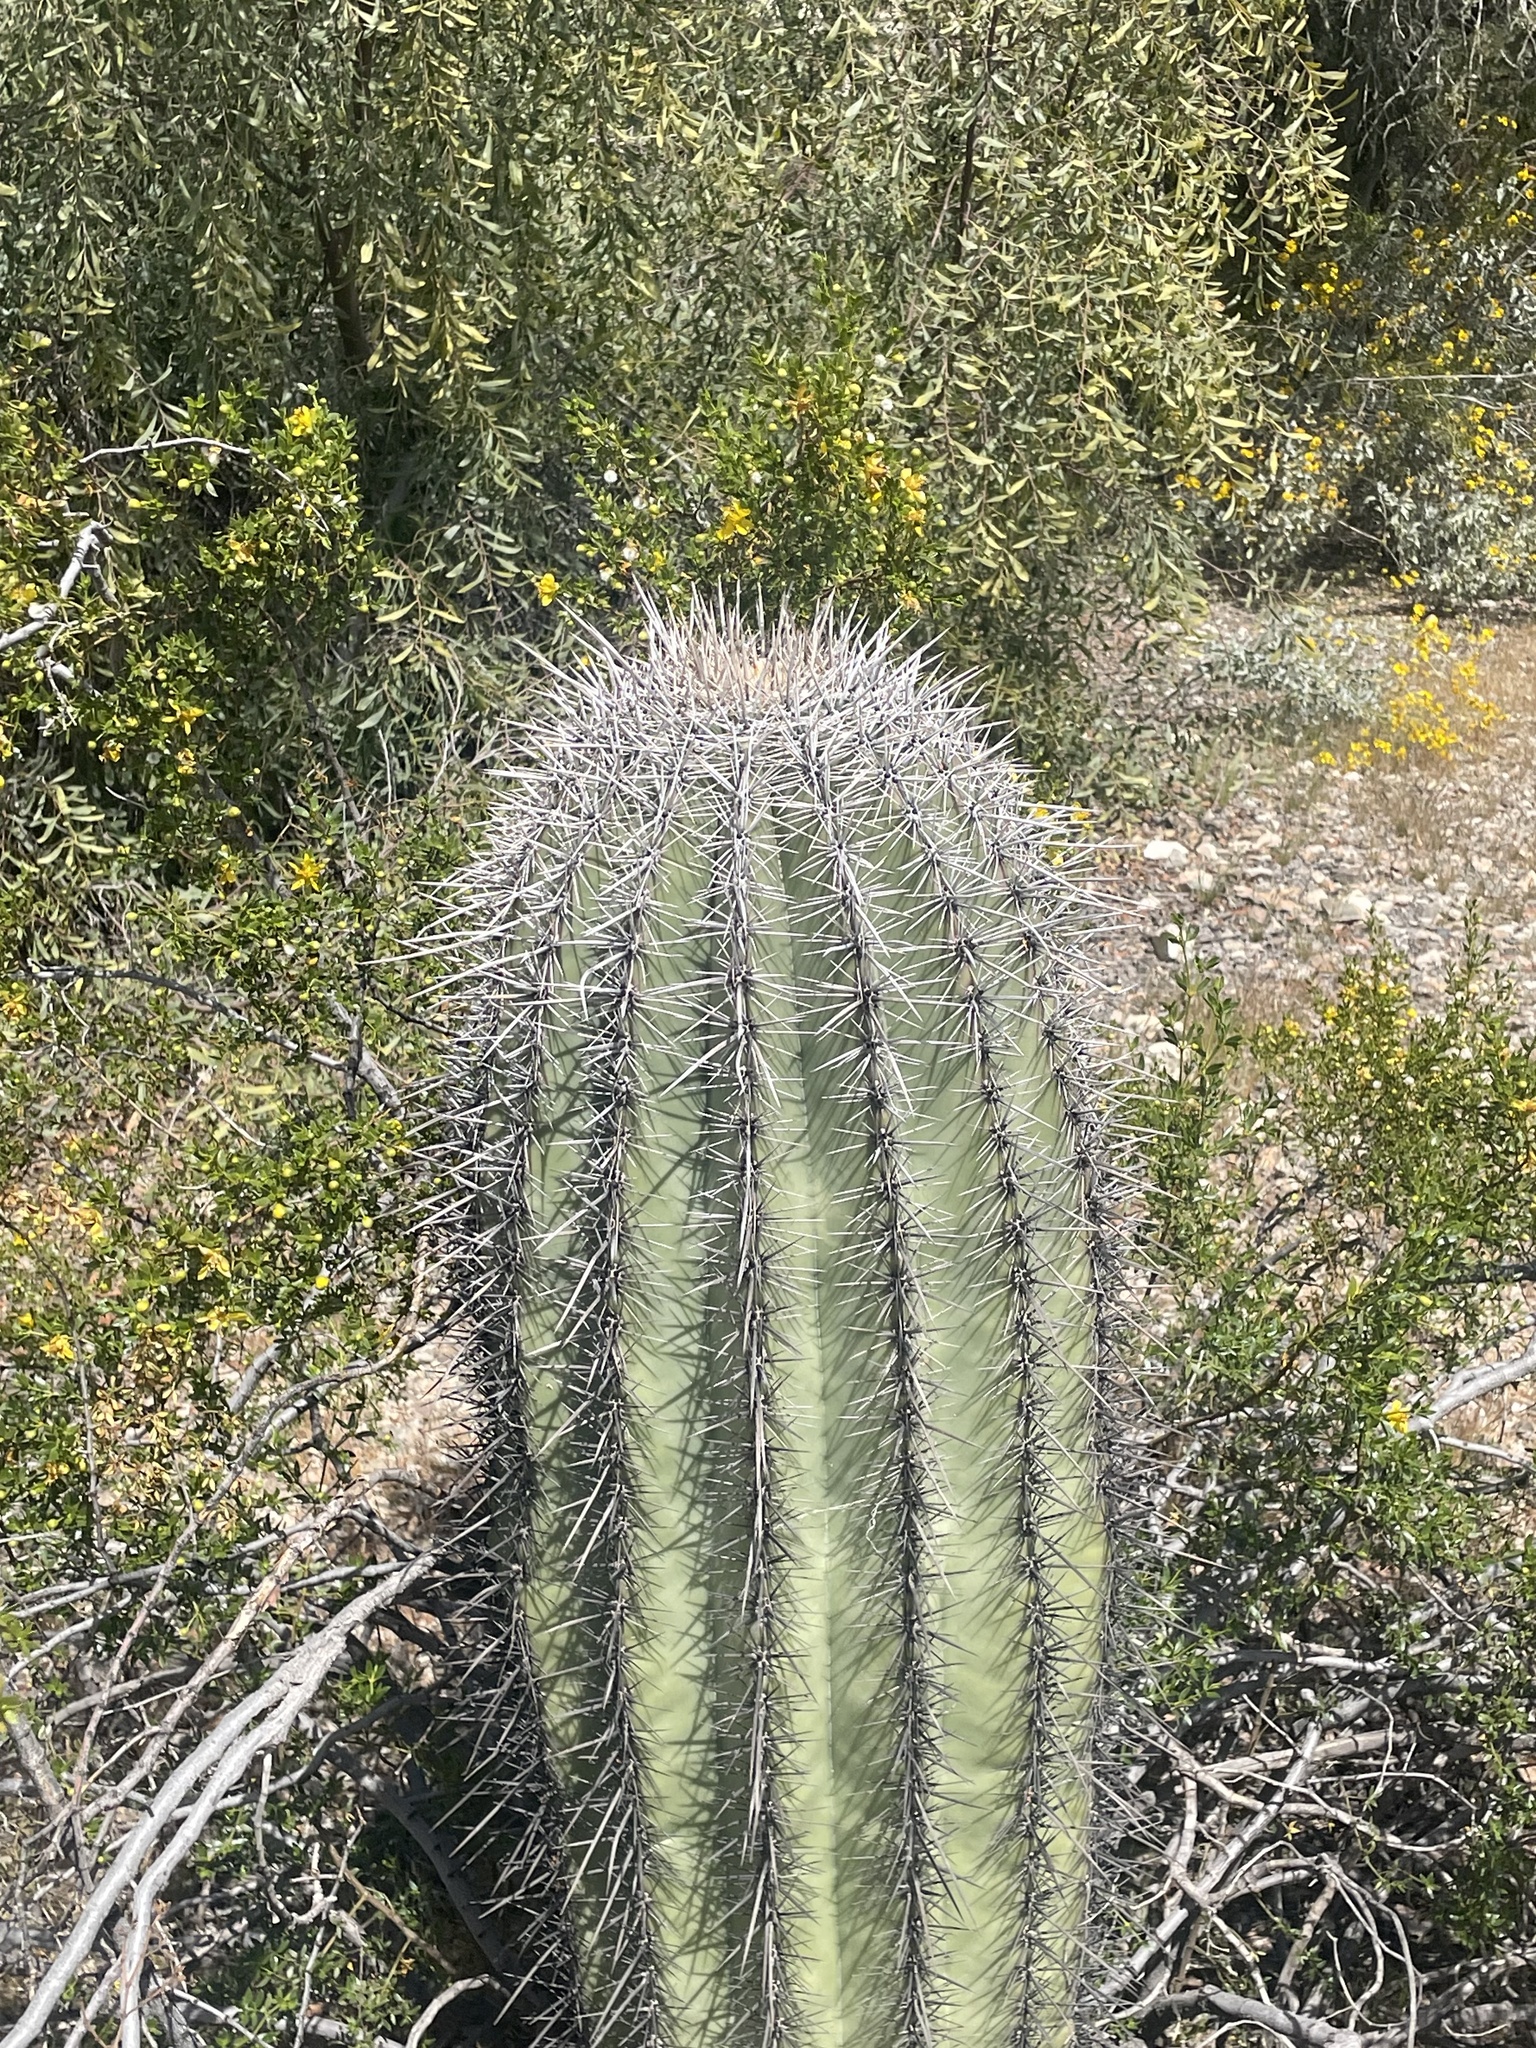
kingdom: Plantae
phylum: Tracheophyta
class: Magnoliopsida
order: Caryophyllales
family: Cactaceae
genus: Carnegiea
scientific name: Carnegiea gigantea
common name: Saguaro
